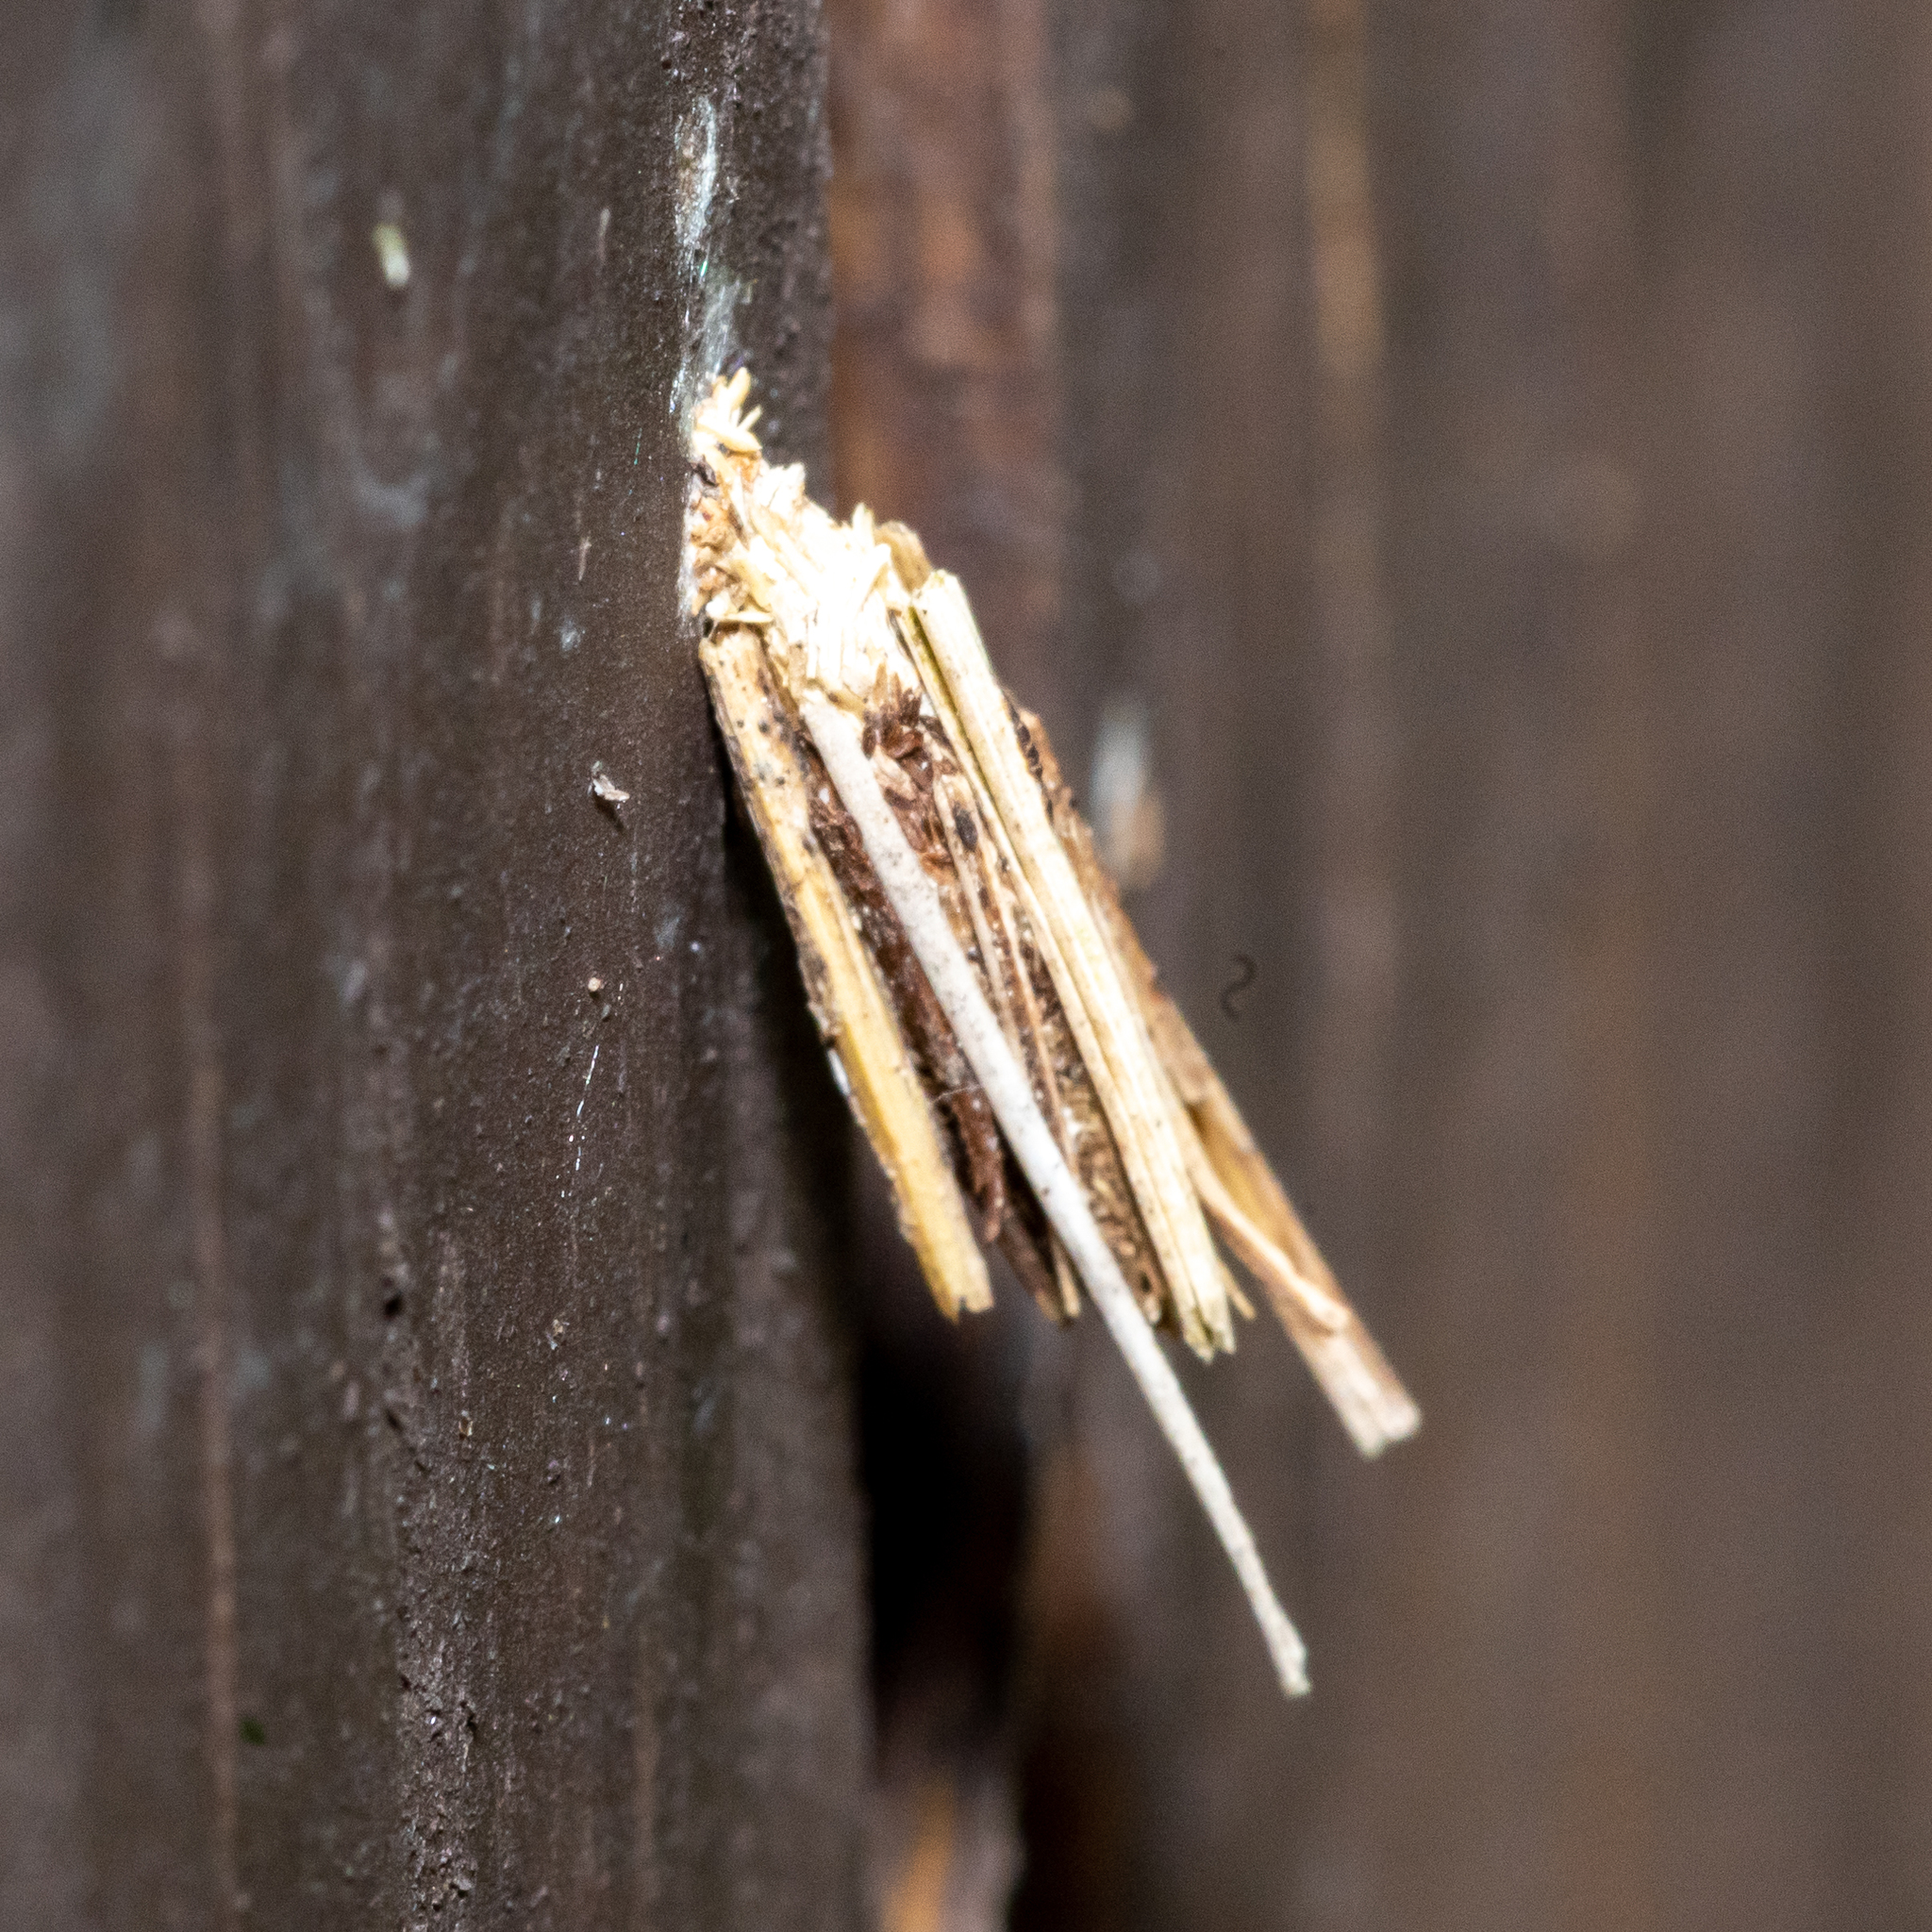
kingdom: Animalia
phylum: Arthropoda
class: Insecta
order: Lepidoptera
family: Psychidae
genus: Psyche
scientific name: Psyche casta
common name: Common sweep
